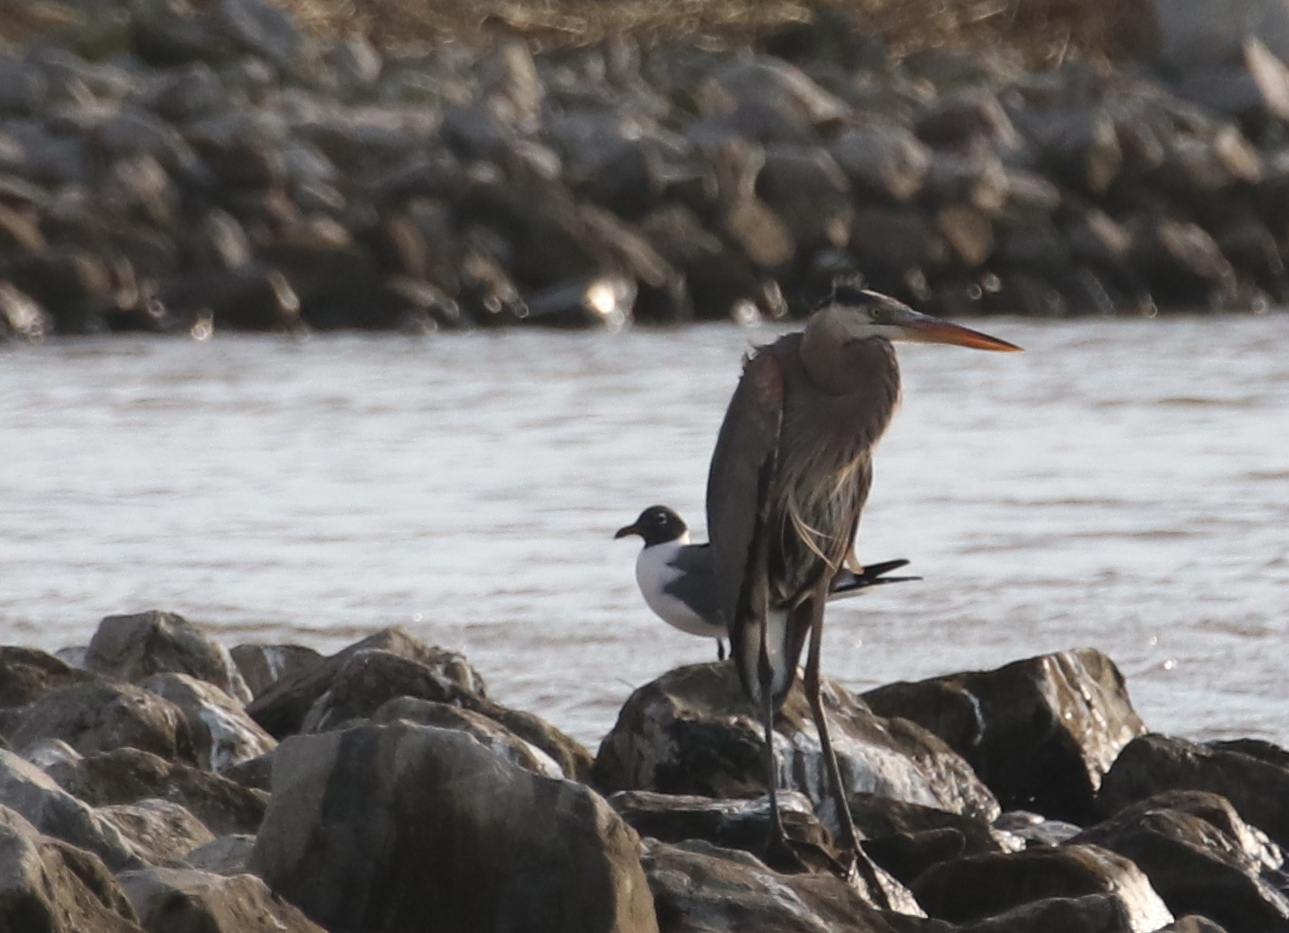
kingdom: Animalia
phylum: Chordata
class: Aves
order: Pelecaniformes
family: Ardeidae
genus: Ardea
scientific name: Ardea herodias
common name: Great blue heron
